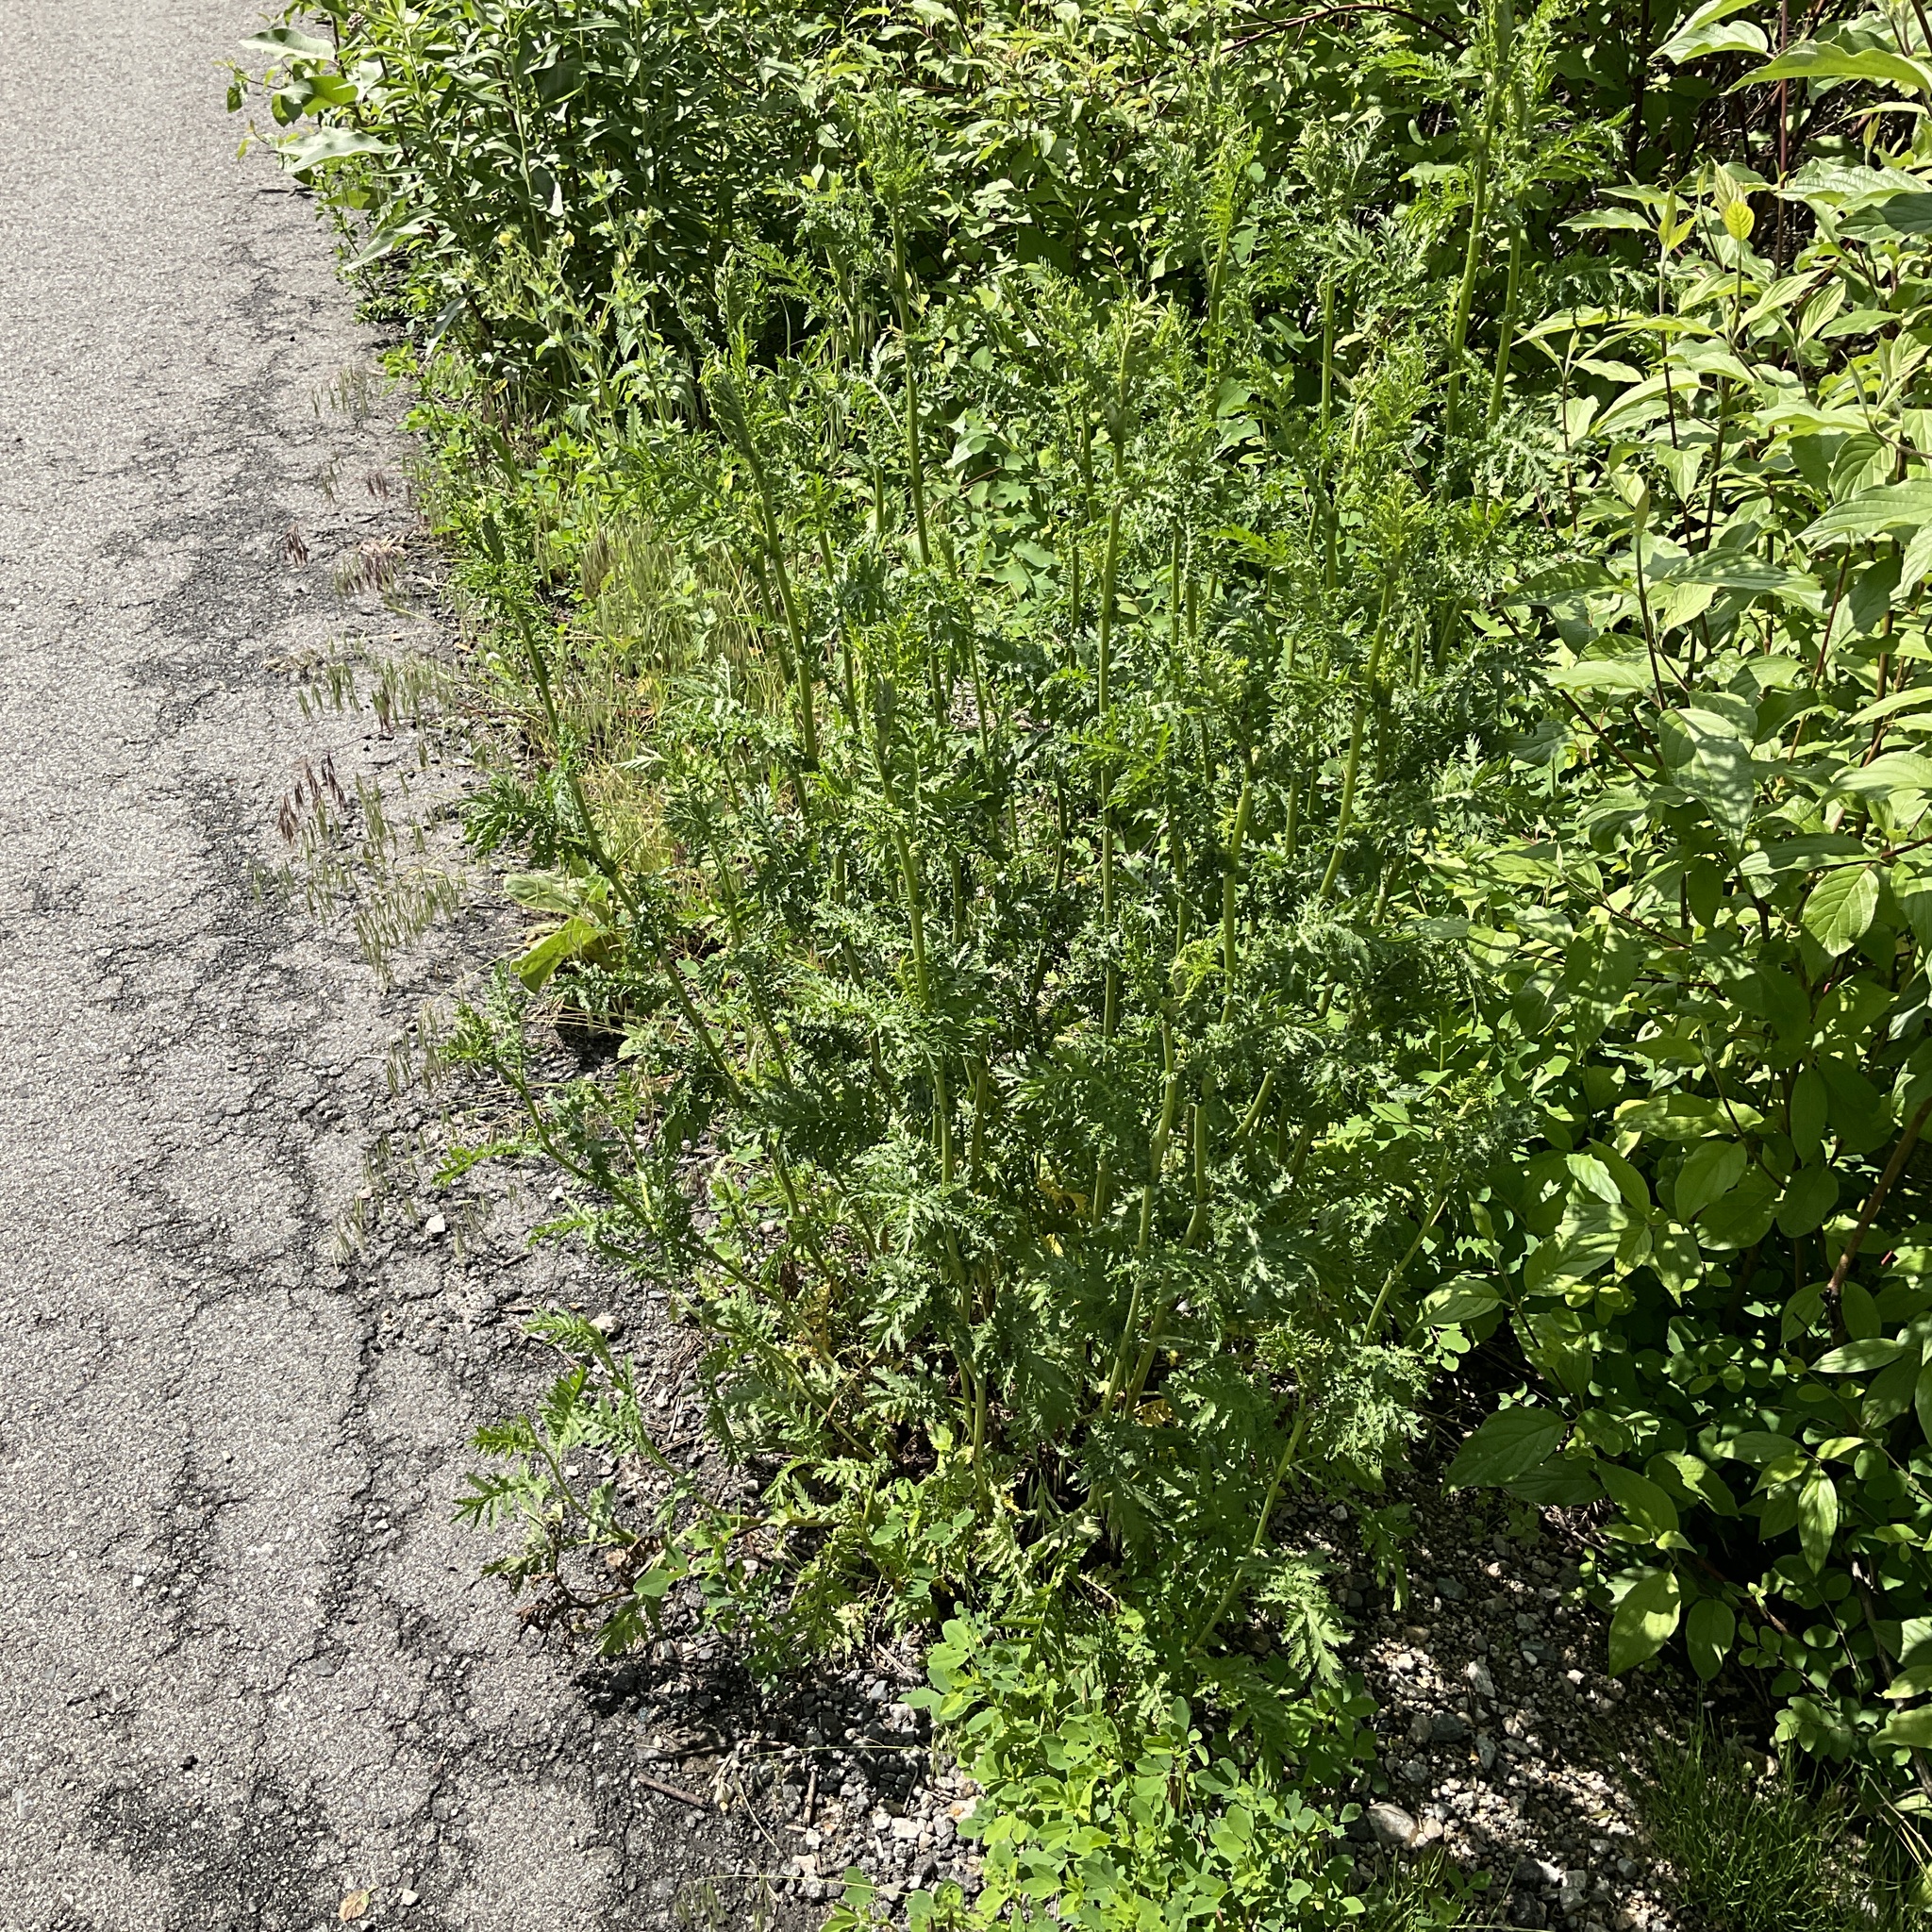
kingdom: Plantae
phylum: Tracheophyta
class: Magnoliopsida
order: Asterales
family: Asteraceae
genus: Tanacetum
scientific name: Tanacetum vulgare
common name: Common tansy
